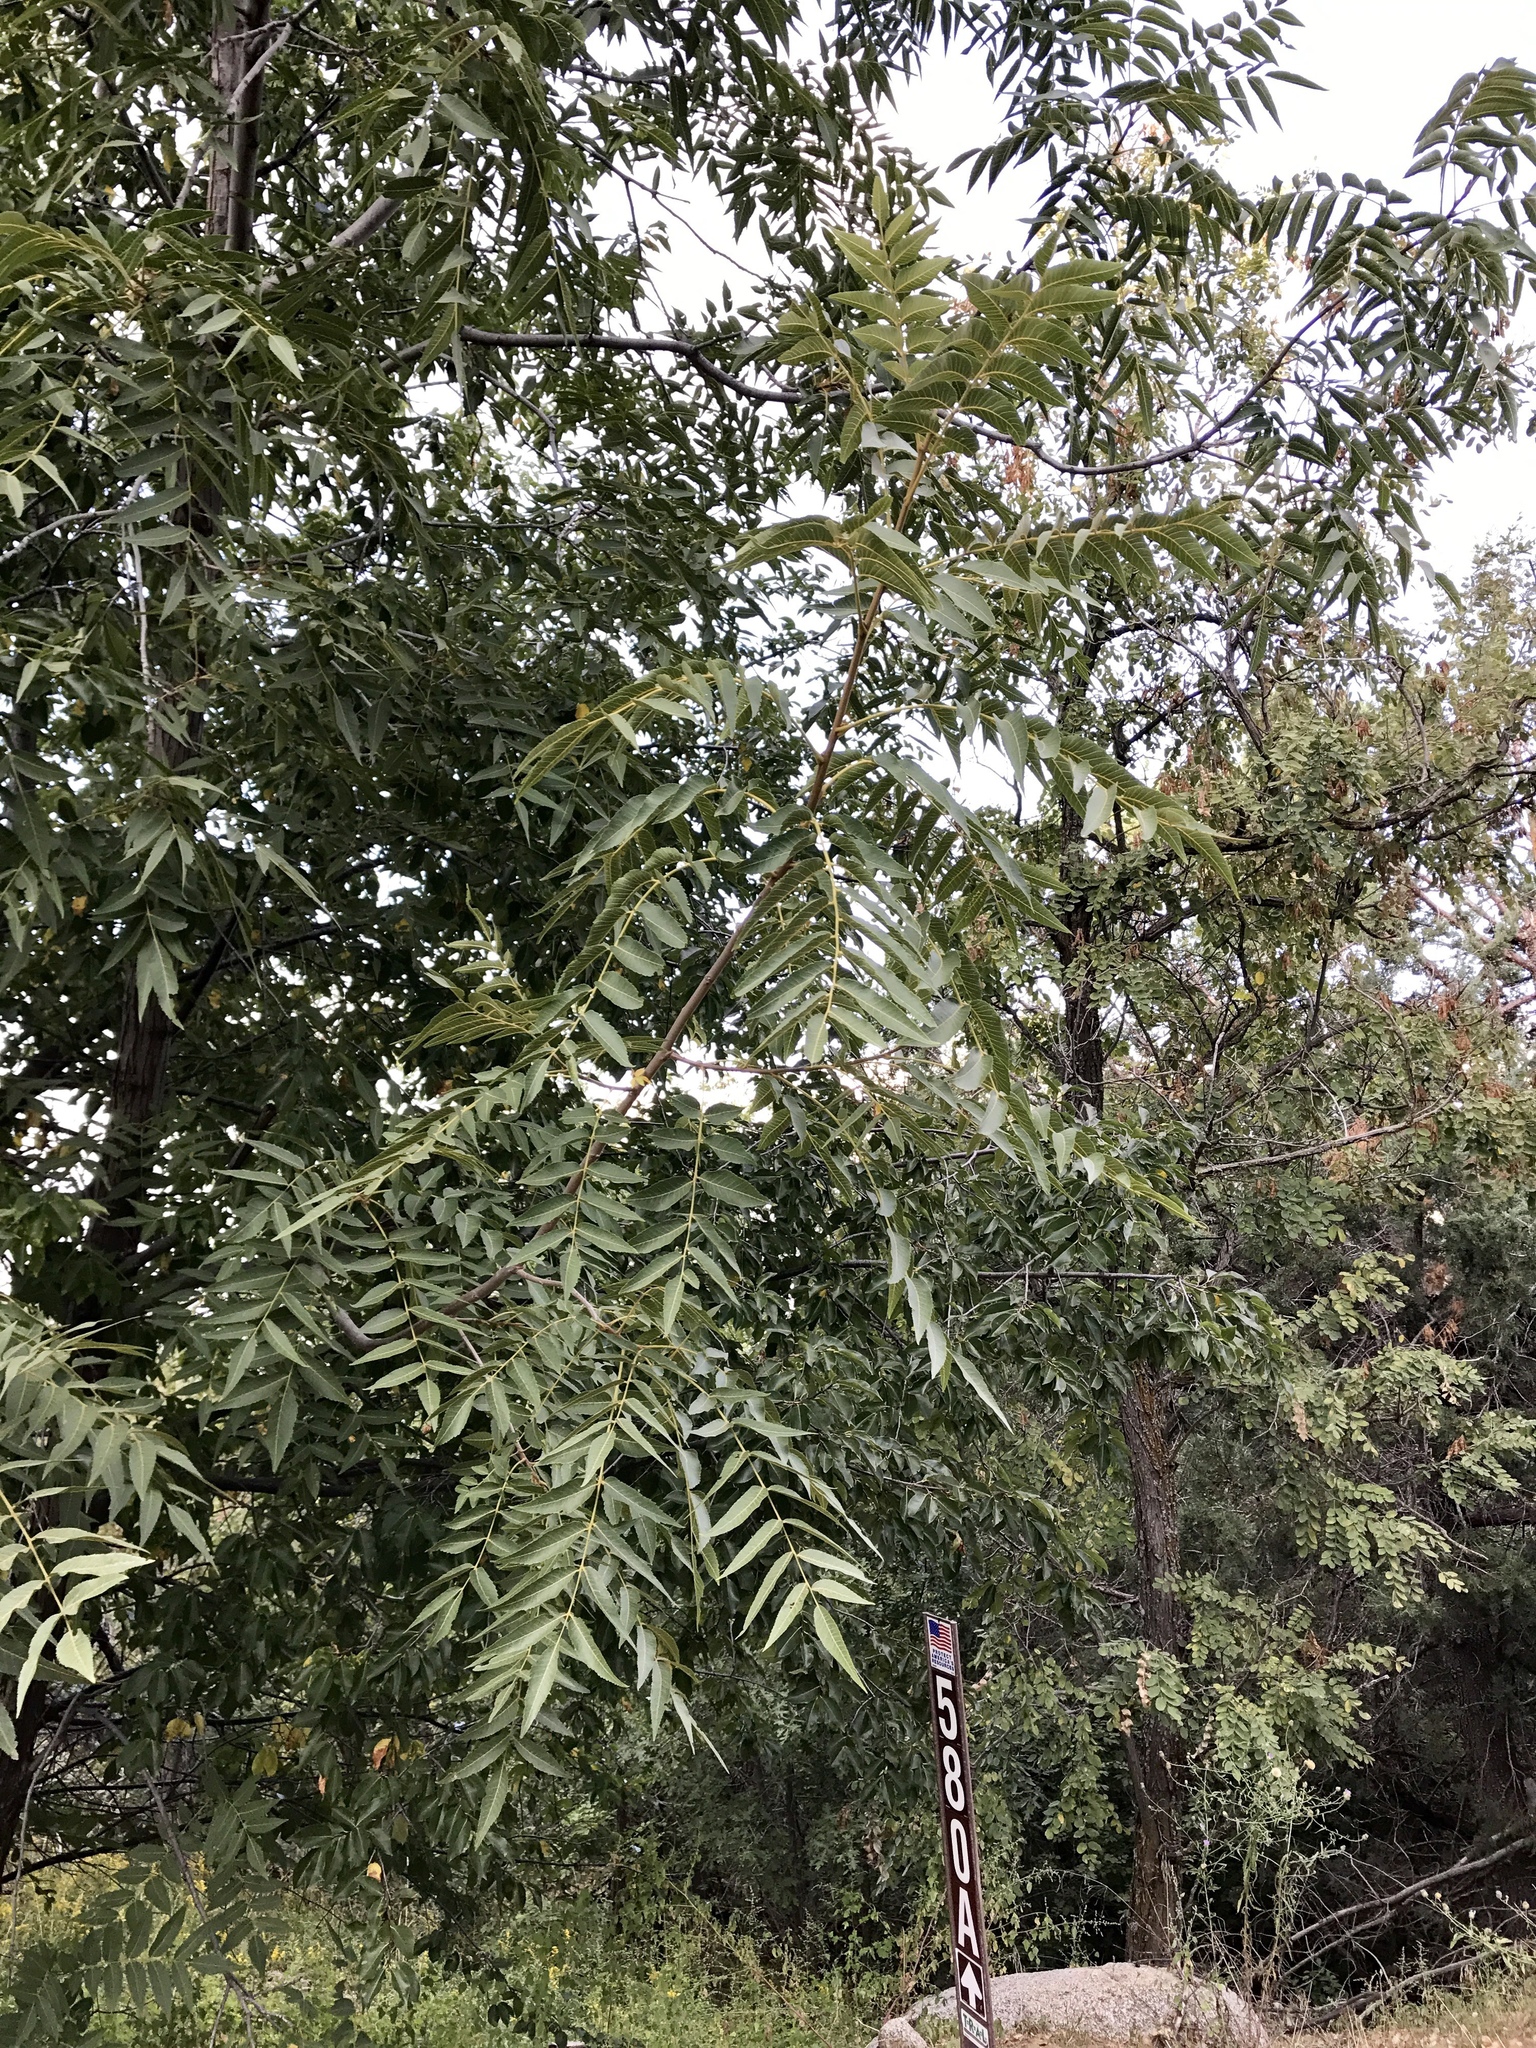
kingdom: Plantae
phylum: Tracheophyta
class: Magnoliopsida
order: Fagales
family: Juglandaceae
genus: Juglans
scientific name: Juglans major
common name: Arizona walnut
